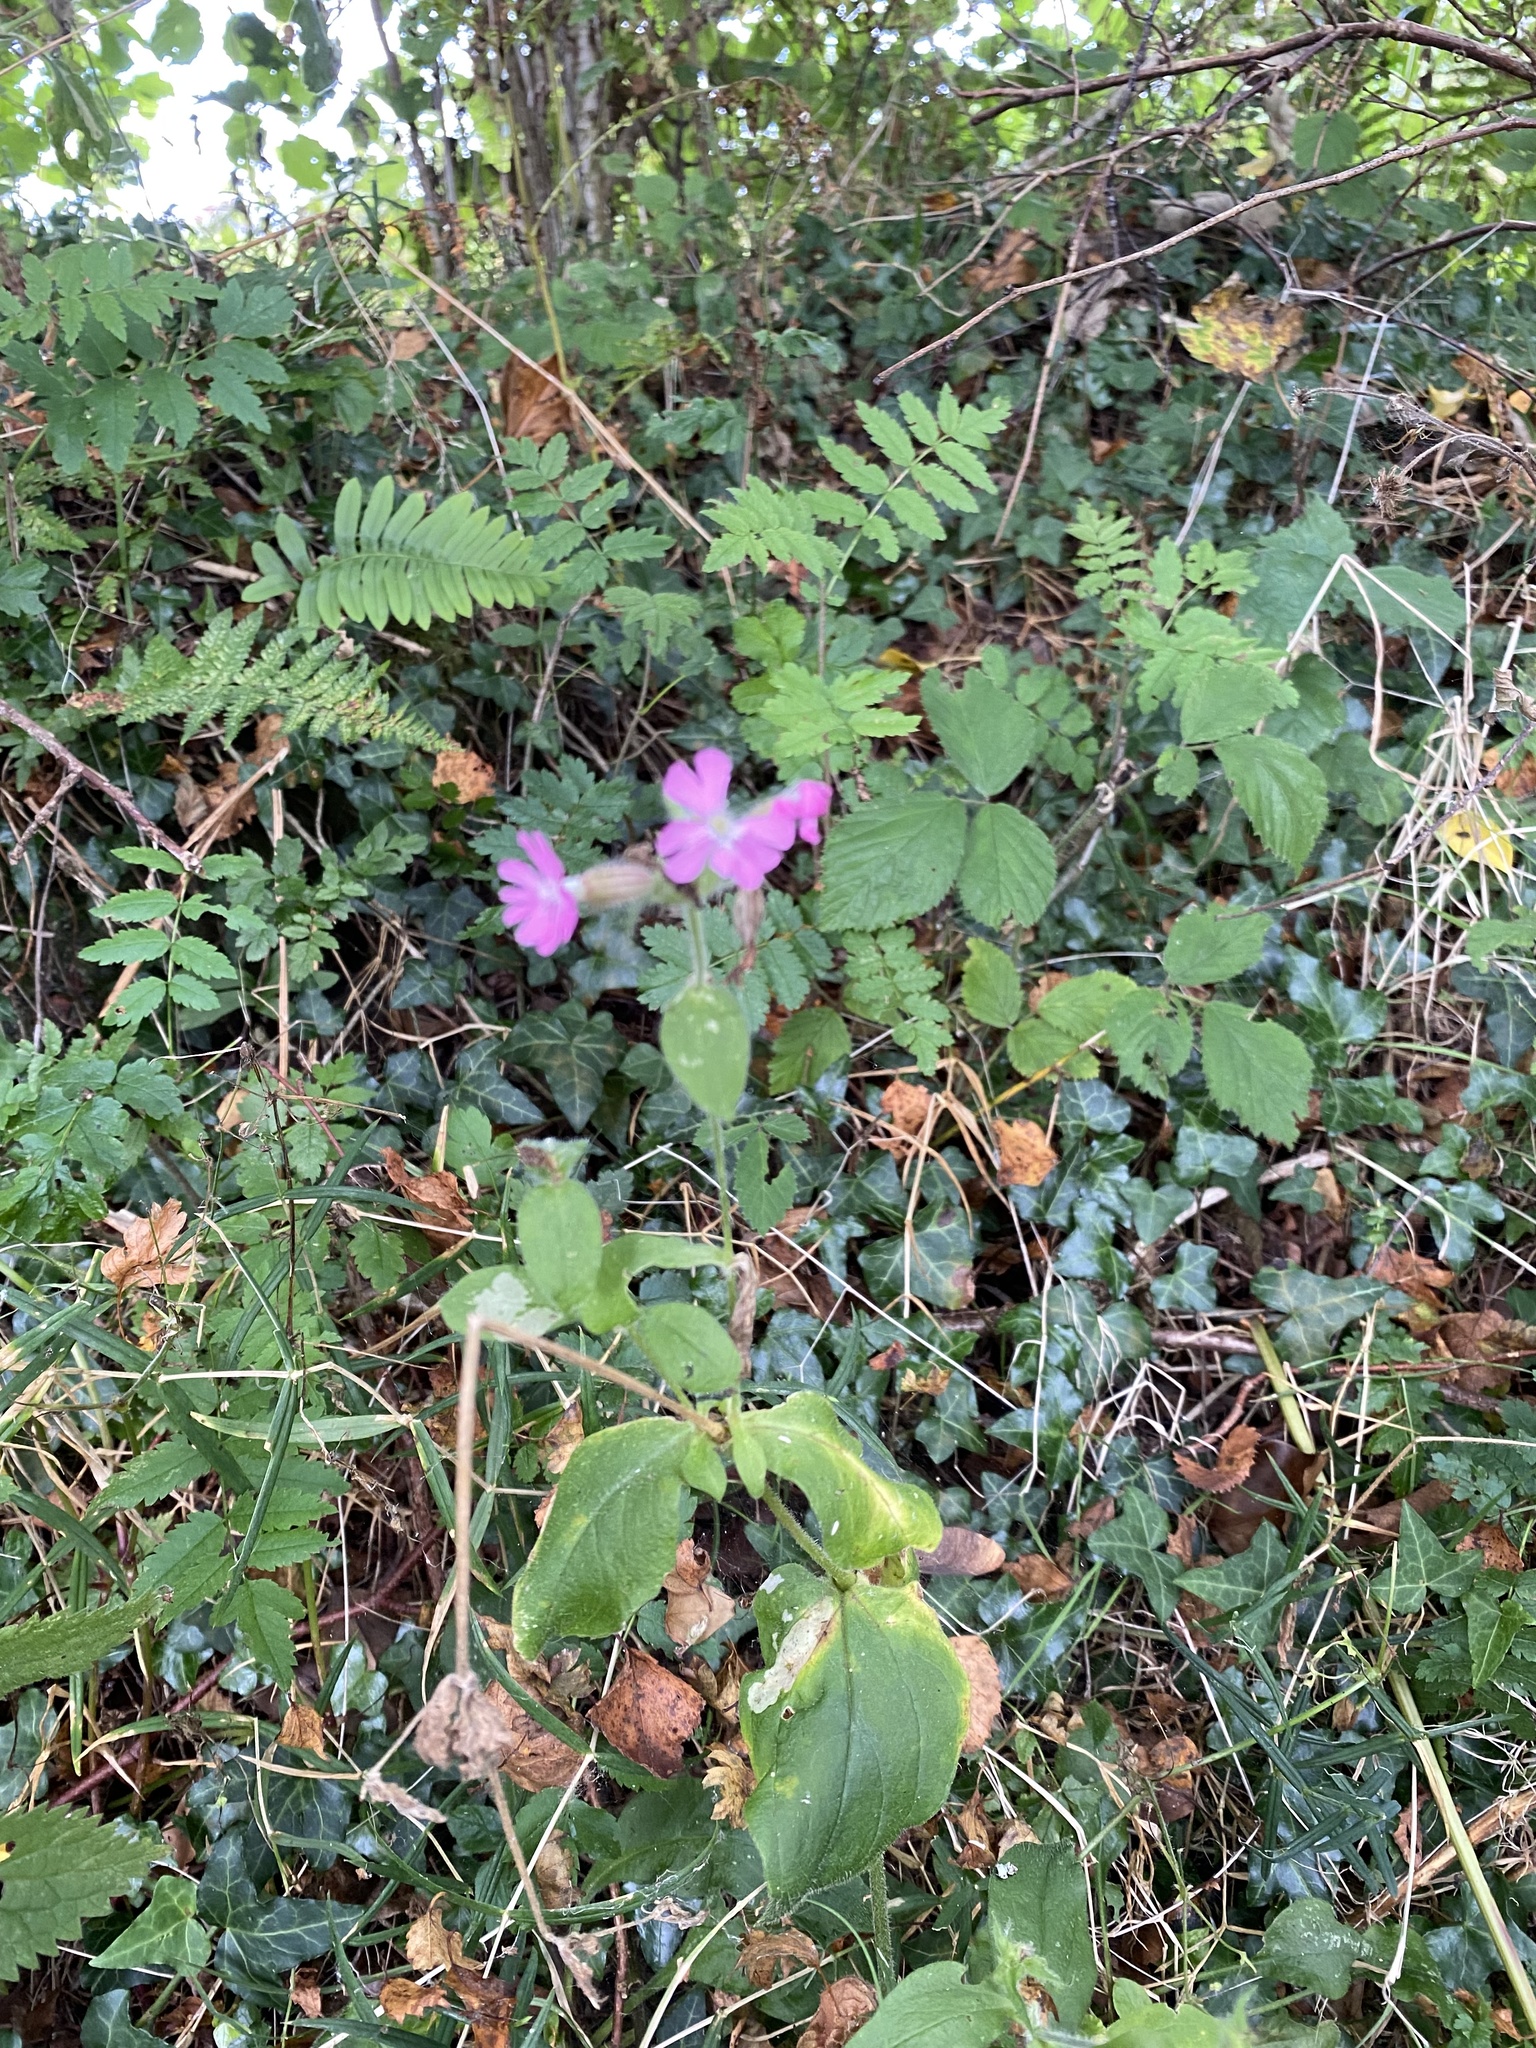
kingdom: Plantae
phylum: Tracheophyta
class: Magnoliopsida
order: Caryophyllales
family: Caryophyllaceae
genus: Silene
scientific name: Silene dioica
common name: Red campion
